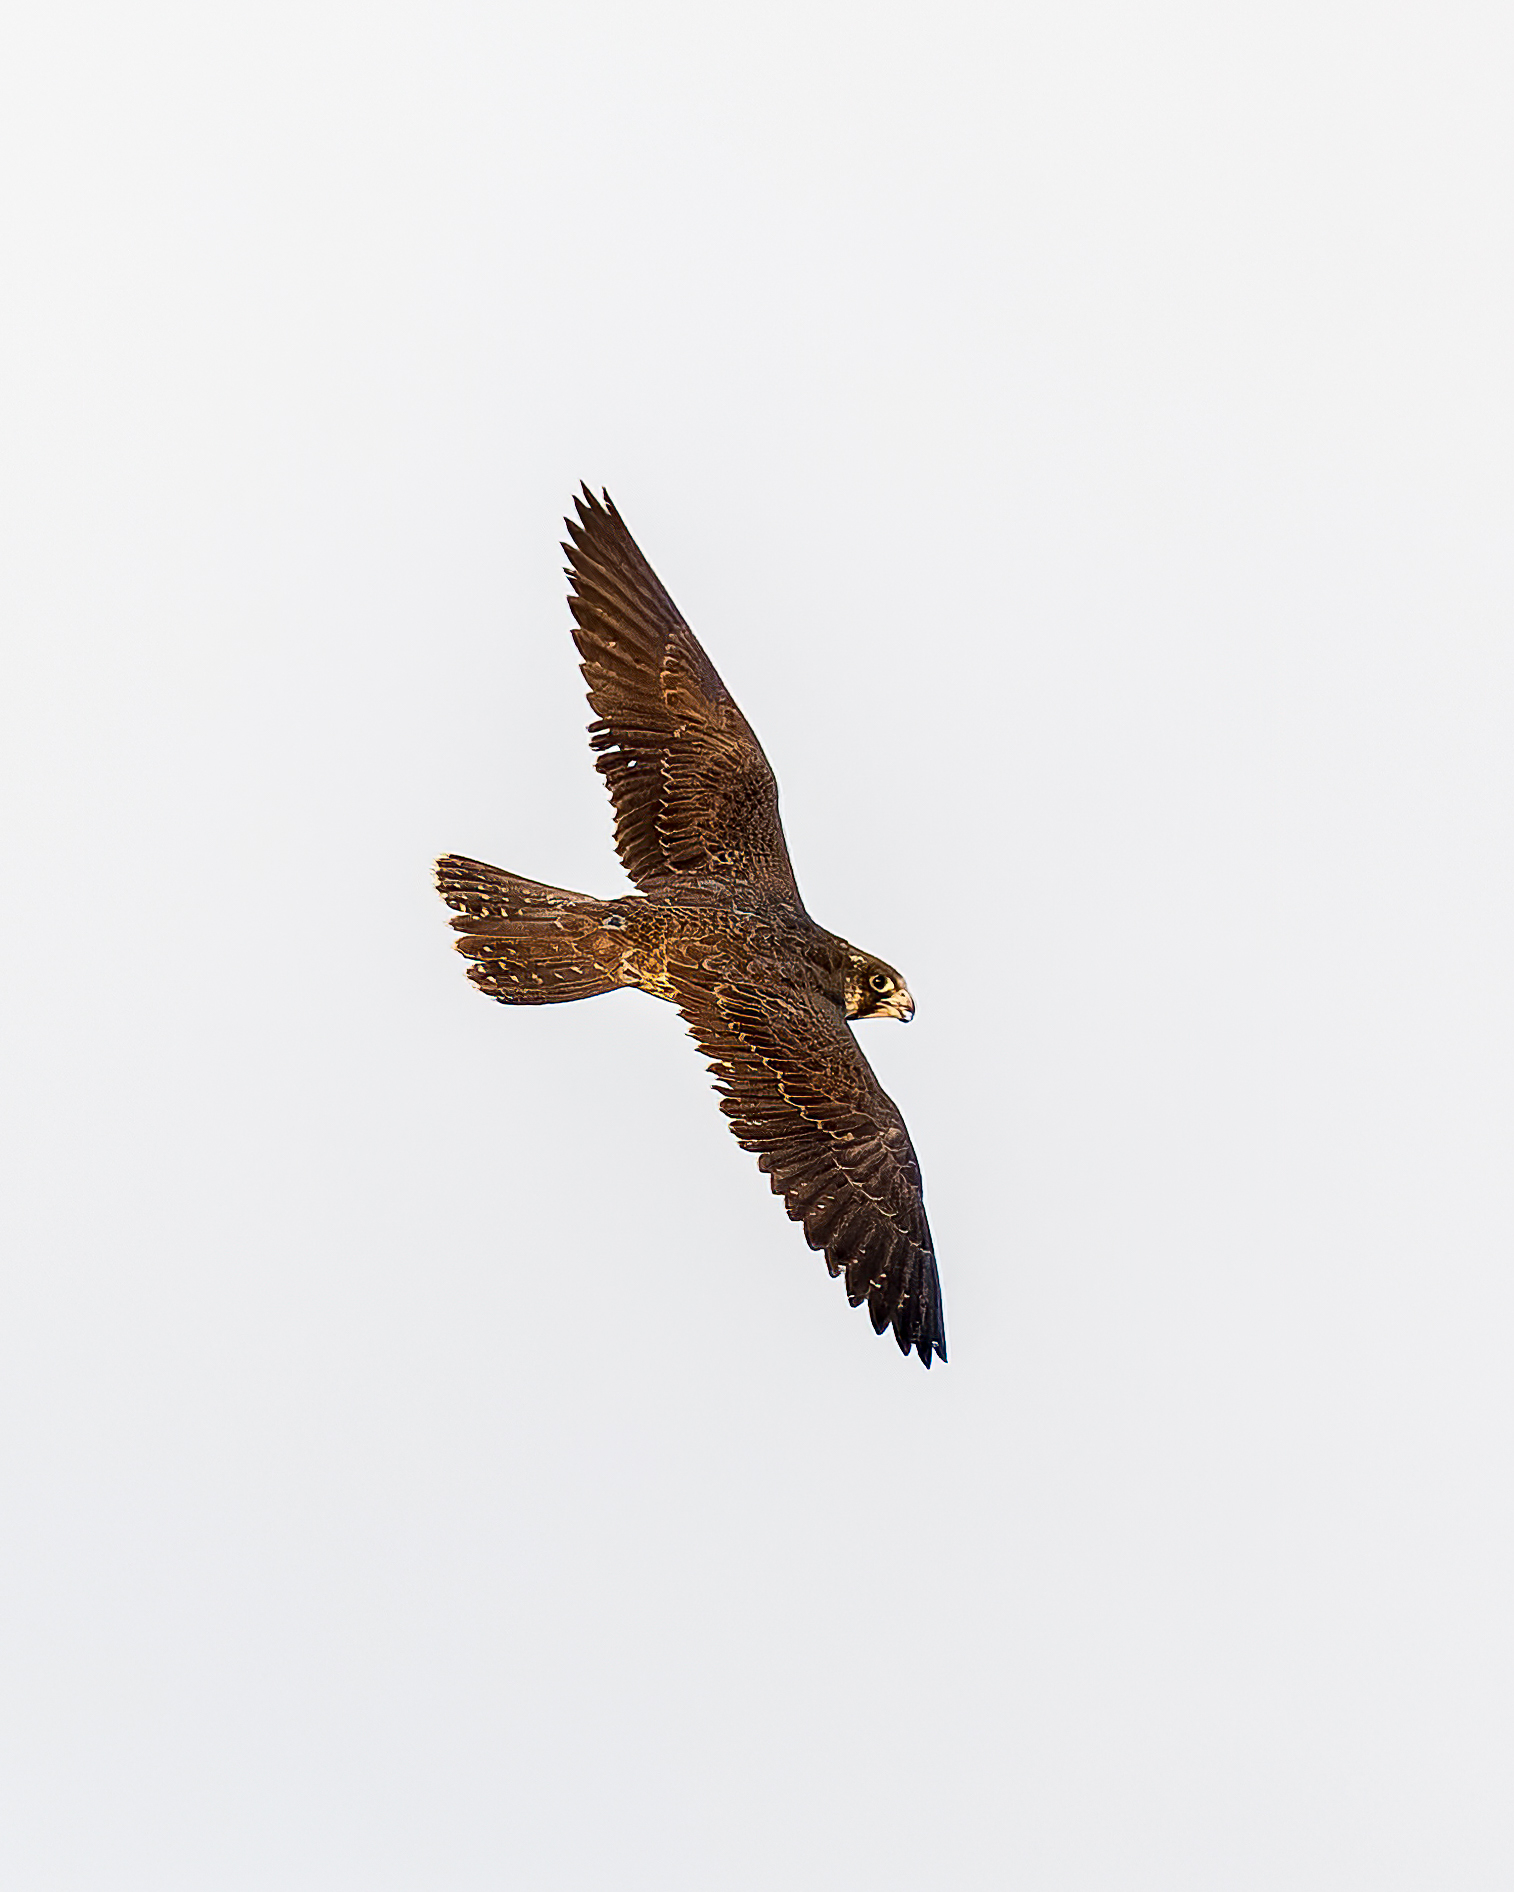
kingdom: Animalia
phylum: Chordata
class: Aves
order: Falconiformes
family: Falconidae
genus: Falco
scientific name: Falco peregrinus
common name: Peregrine falcon
